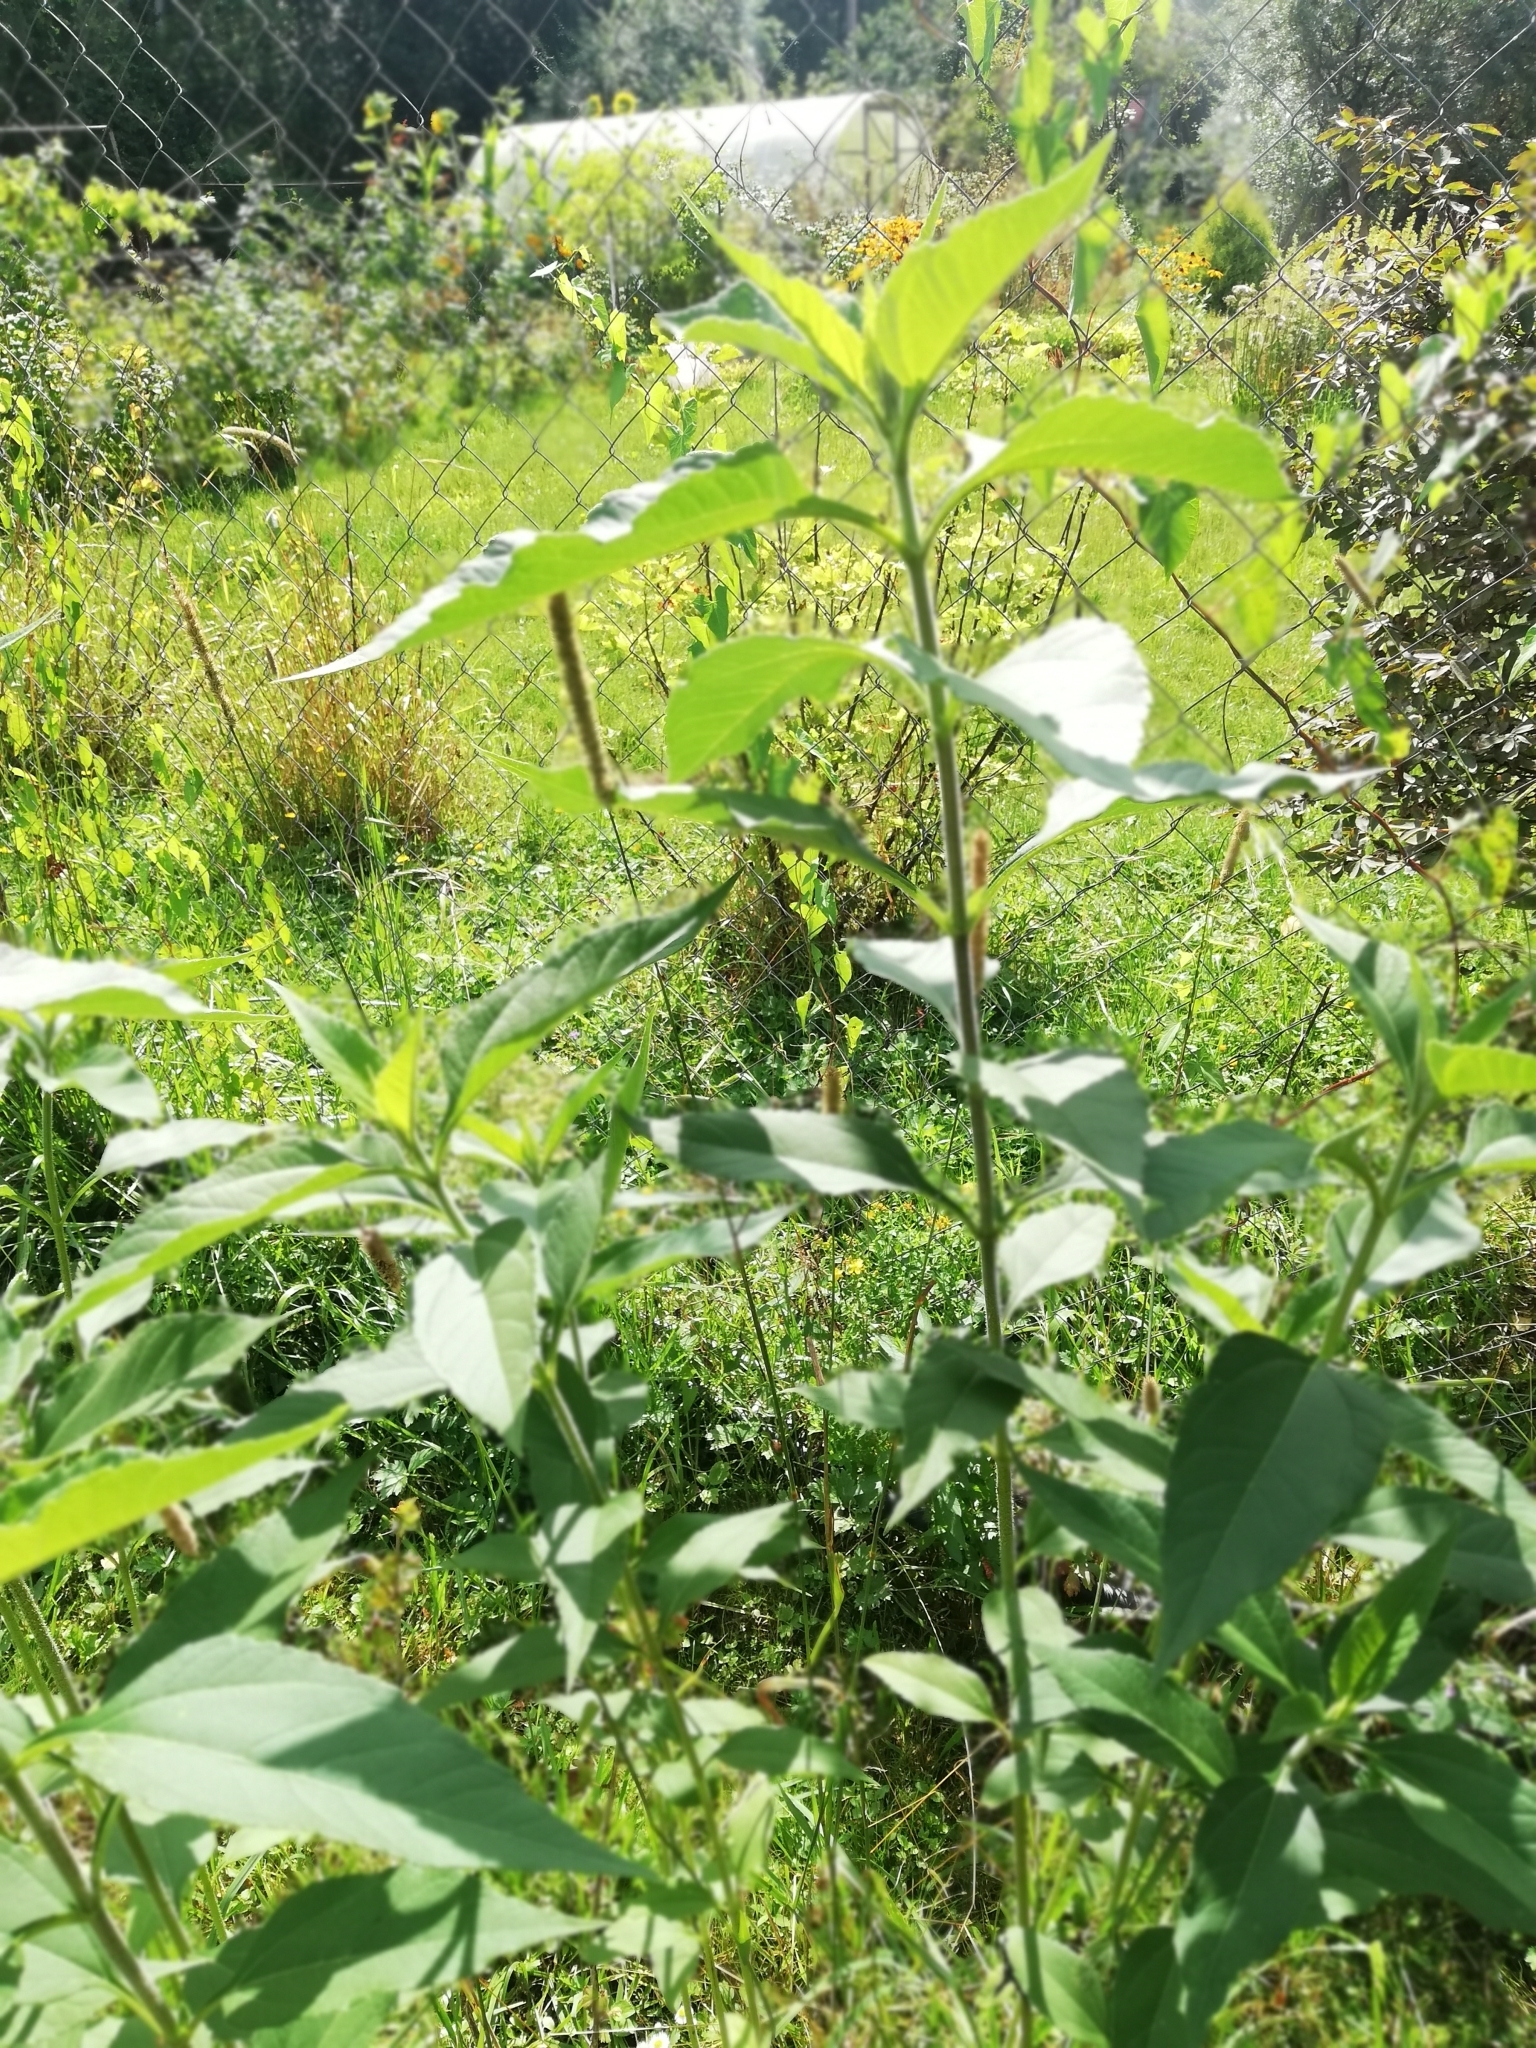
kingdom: Plantae
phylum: Tracheophyta
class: Magnoliopsida
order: Asterales
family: Asteraceae
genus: Helianthus
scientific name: Helianthus tuberosus
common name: Jerusalem artichoke
